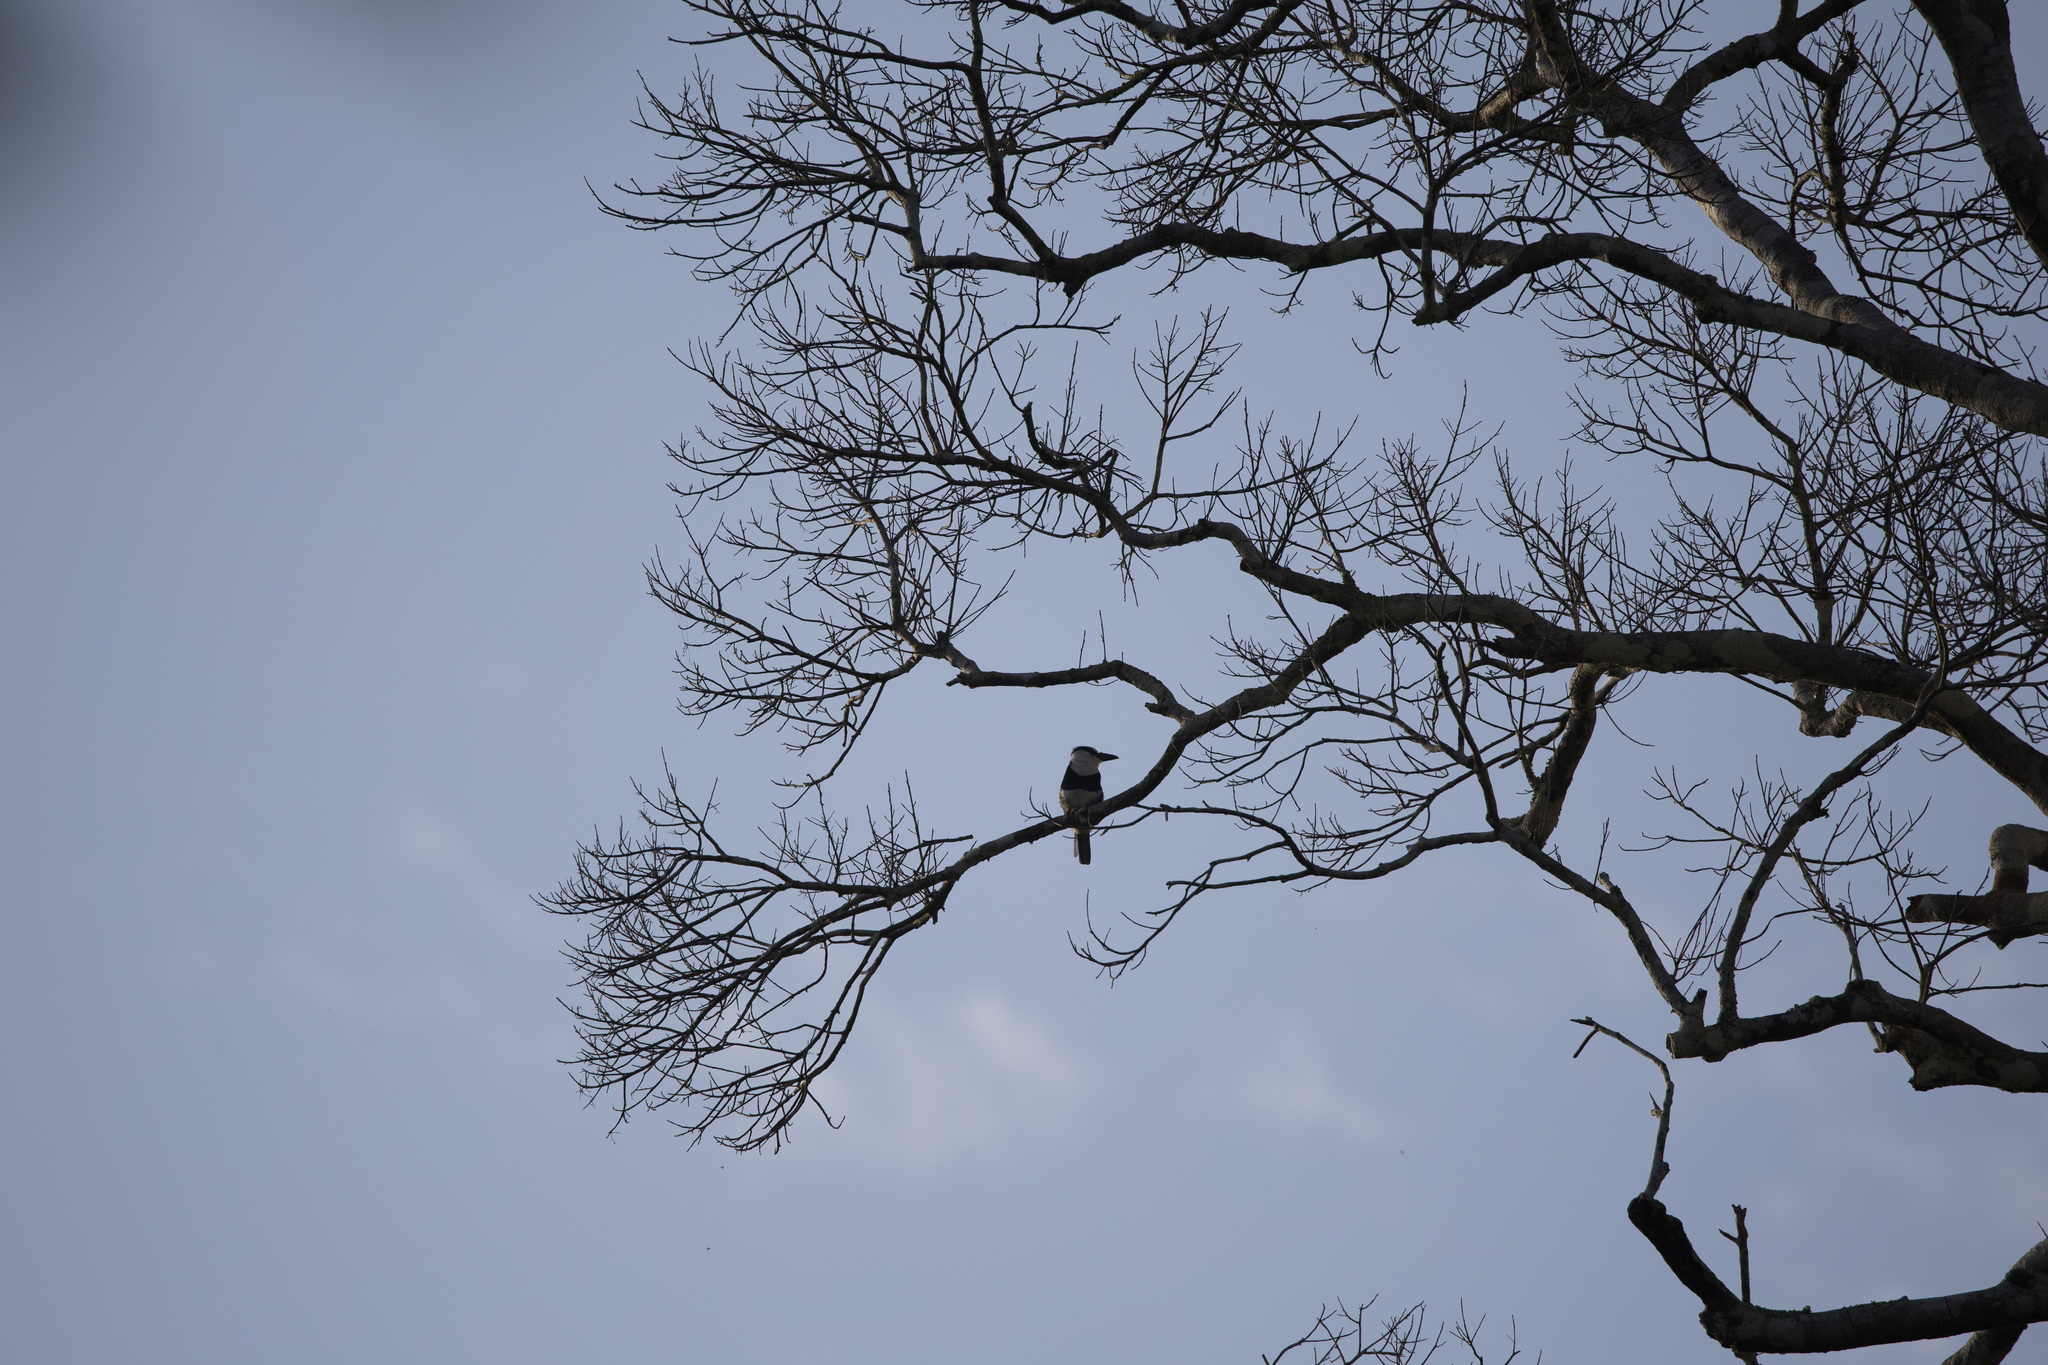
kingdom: Animalia
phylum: Chordata
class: Aves
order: Piciformes
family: Bucconidae
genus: Notharchus
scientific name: Notharchus hyperrhynchus
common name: White-necked puffbird
